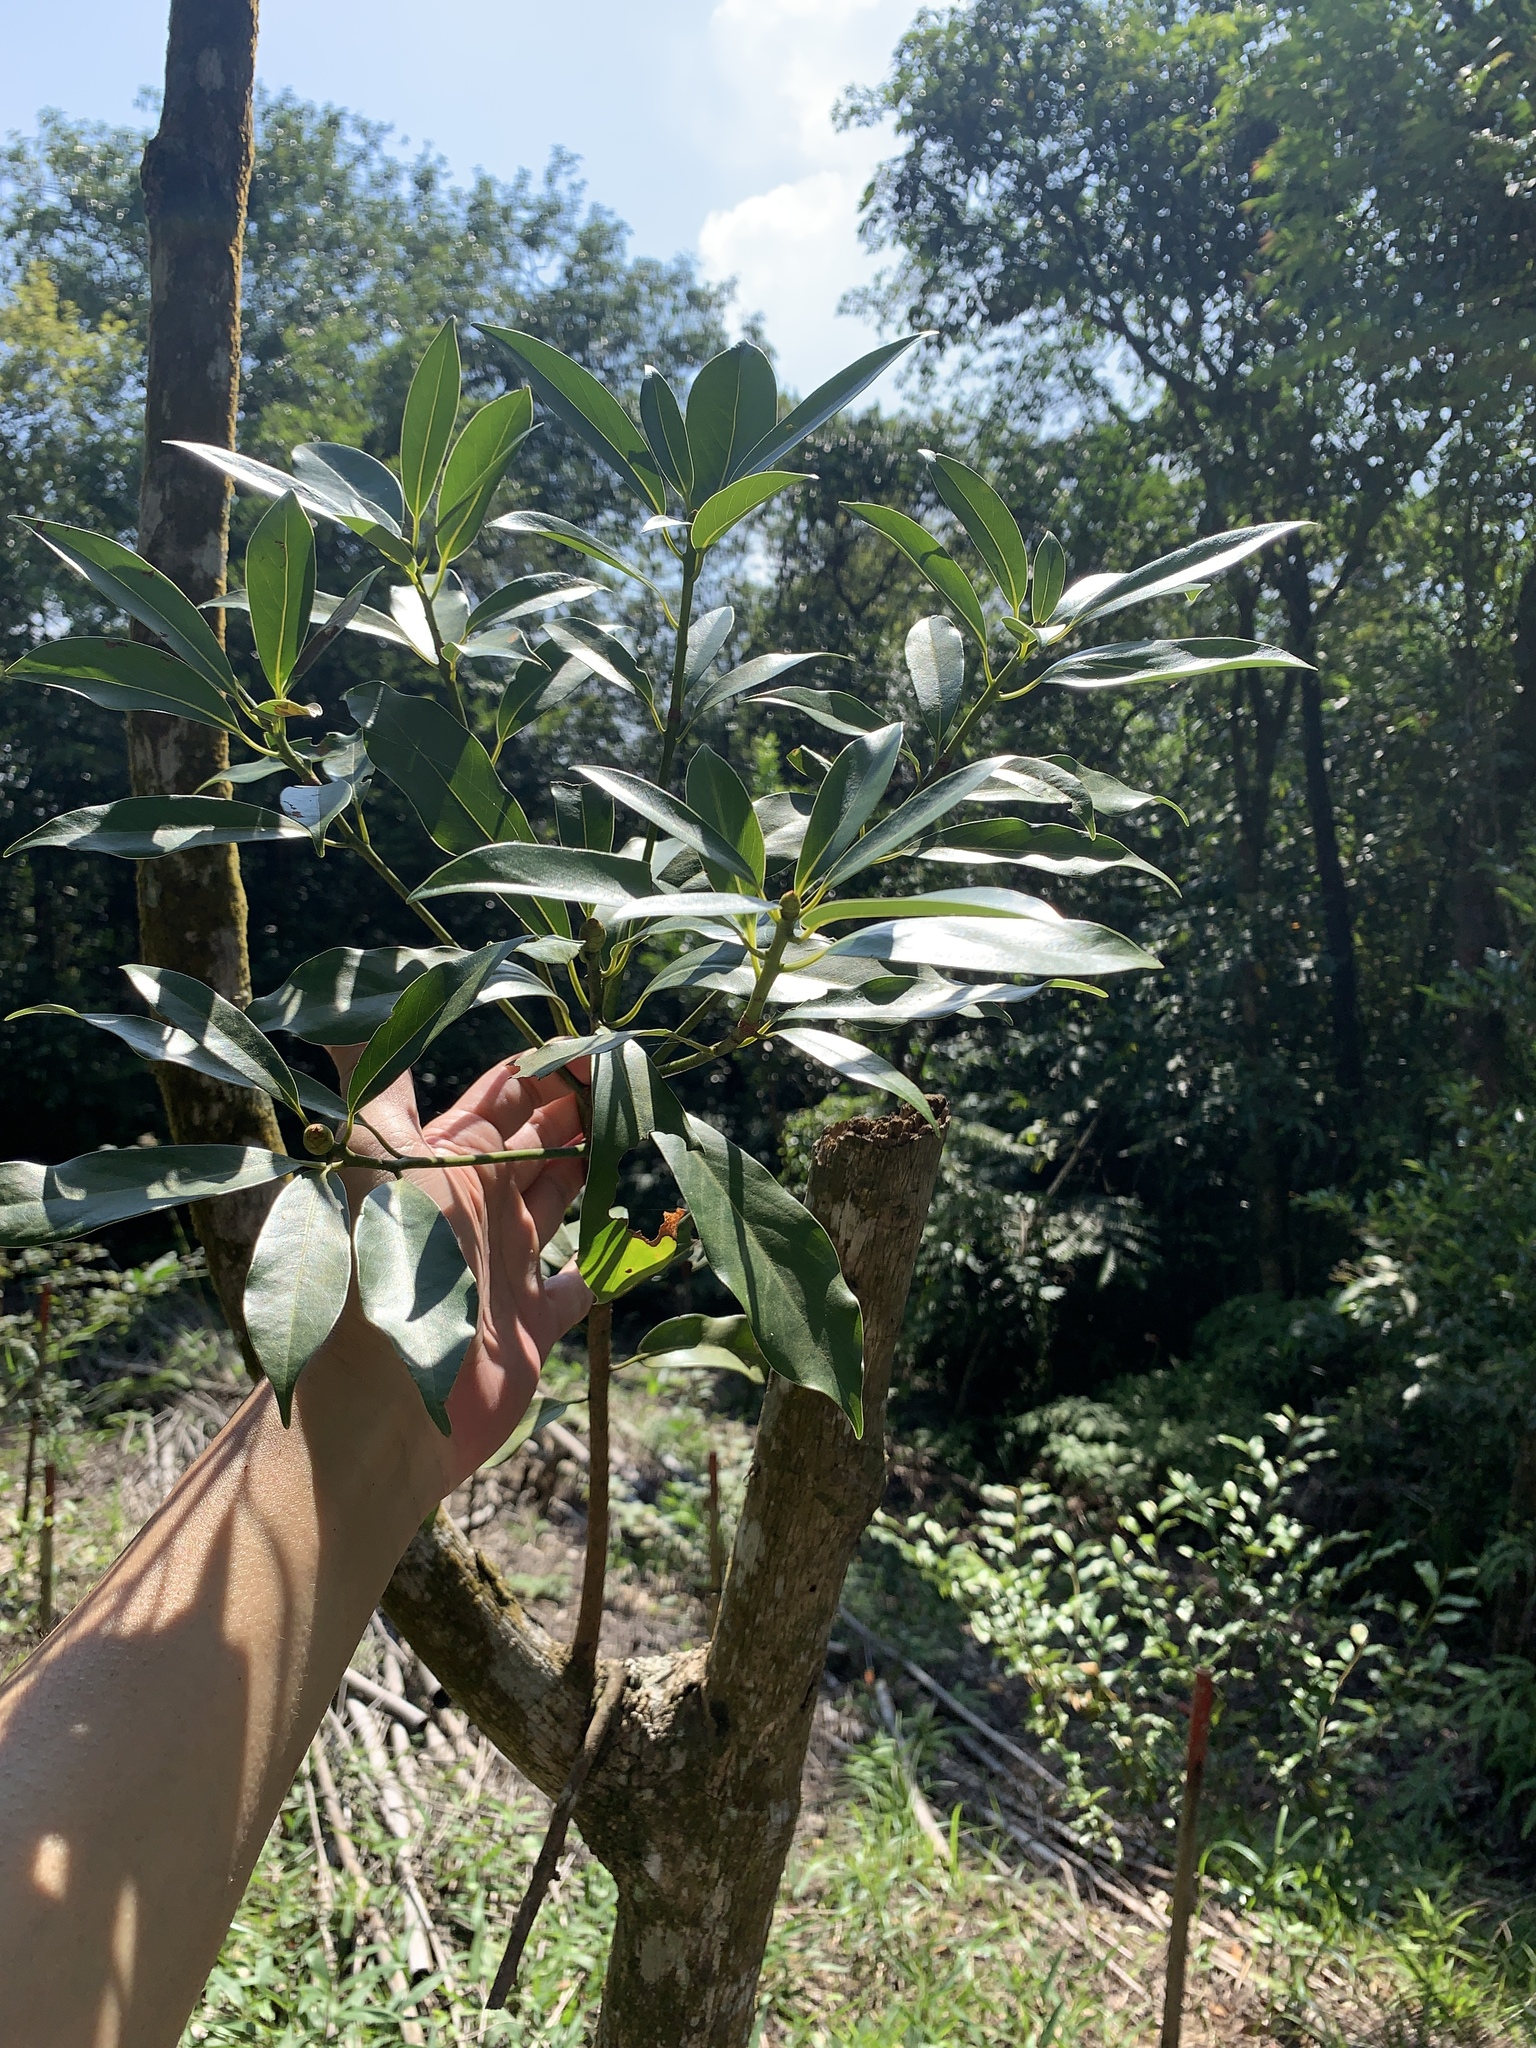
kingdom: Plantae
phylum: Tracheophyta
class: Magnoliopsida
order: Laurales
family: Lauraceae
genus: Machilus
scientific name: Machilus thunbergii
